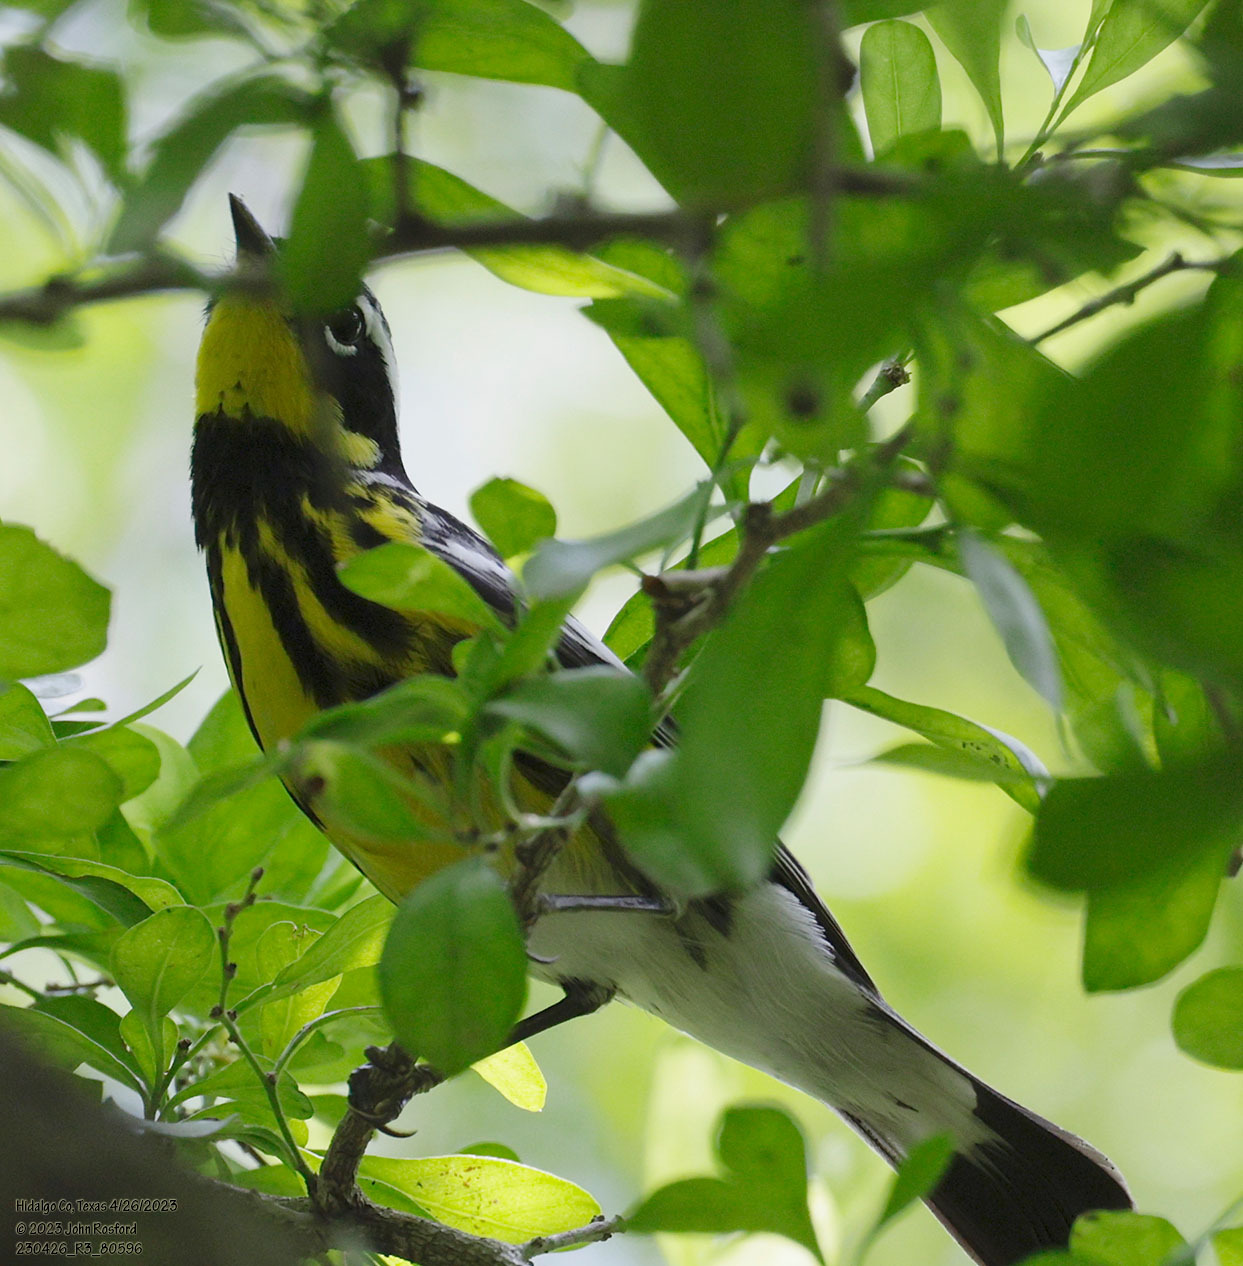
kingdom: Animalia
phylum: Chordata
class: Aves
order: Passeriformes
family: Parulidae
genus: Setophaga
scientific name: Setophaga magnolia
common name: Magnolia warbler
